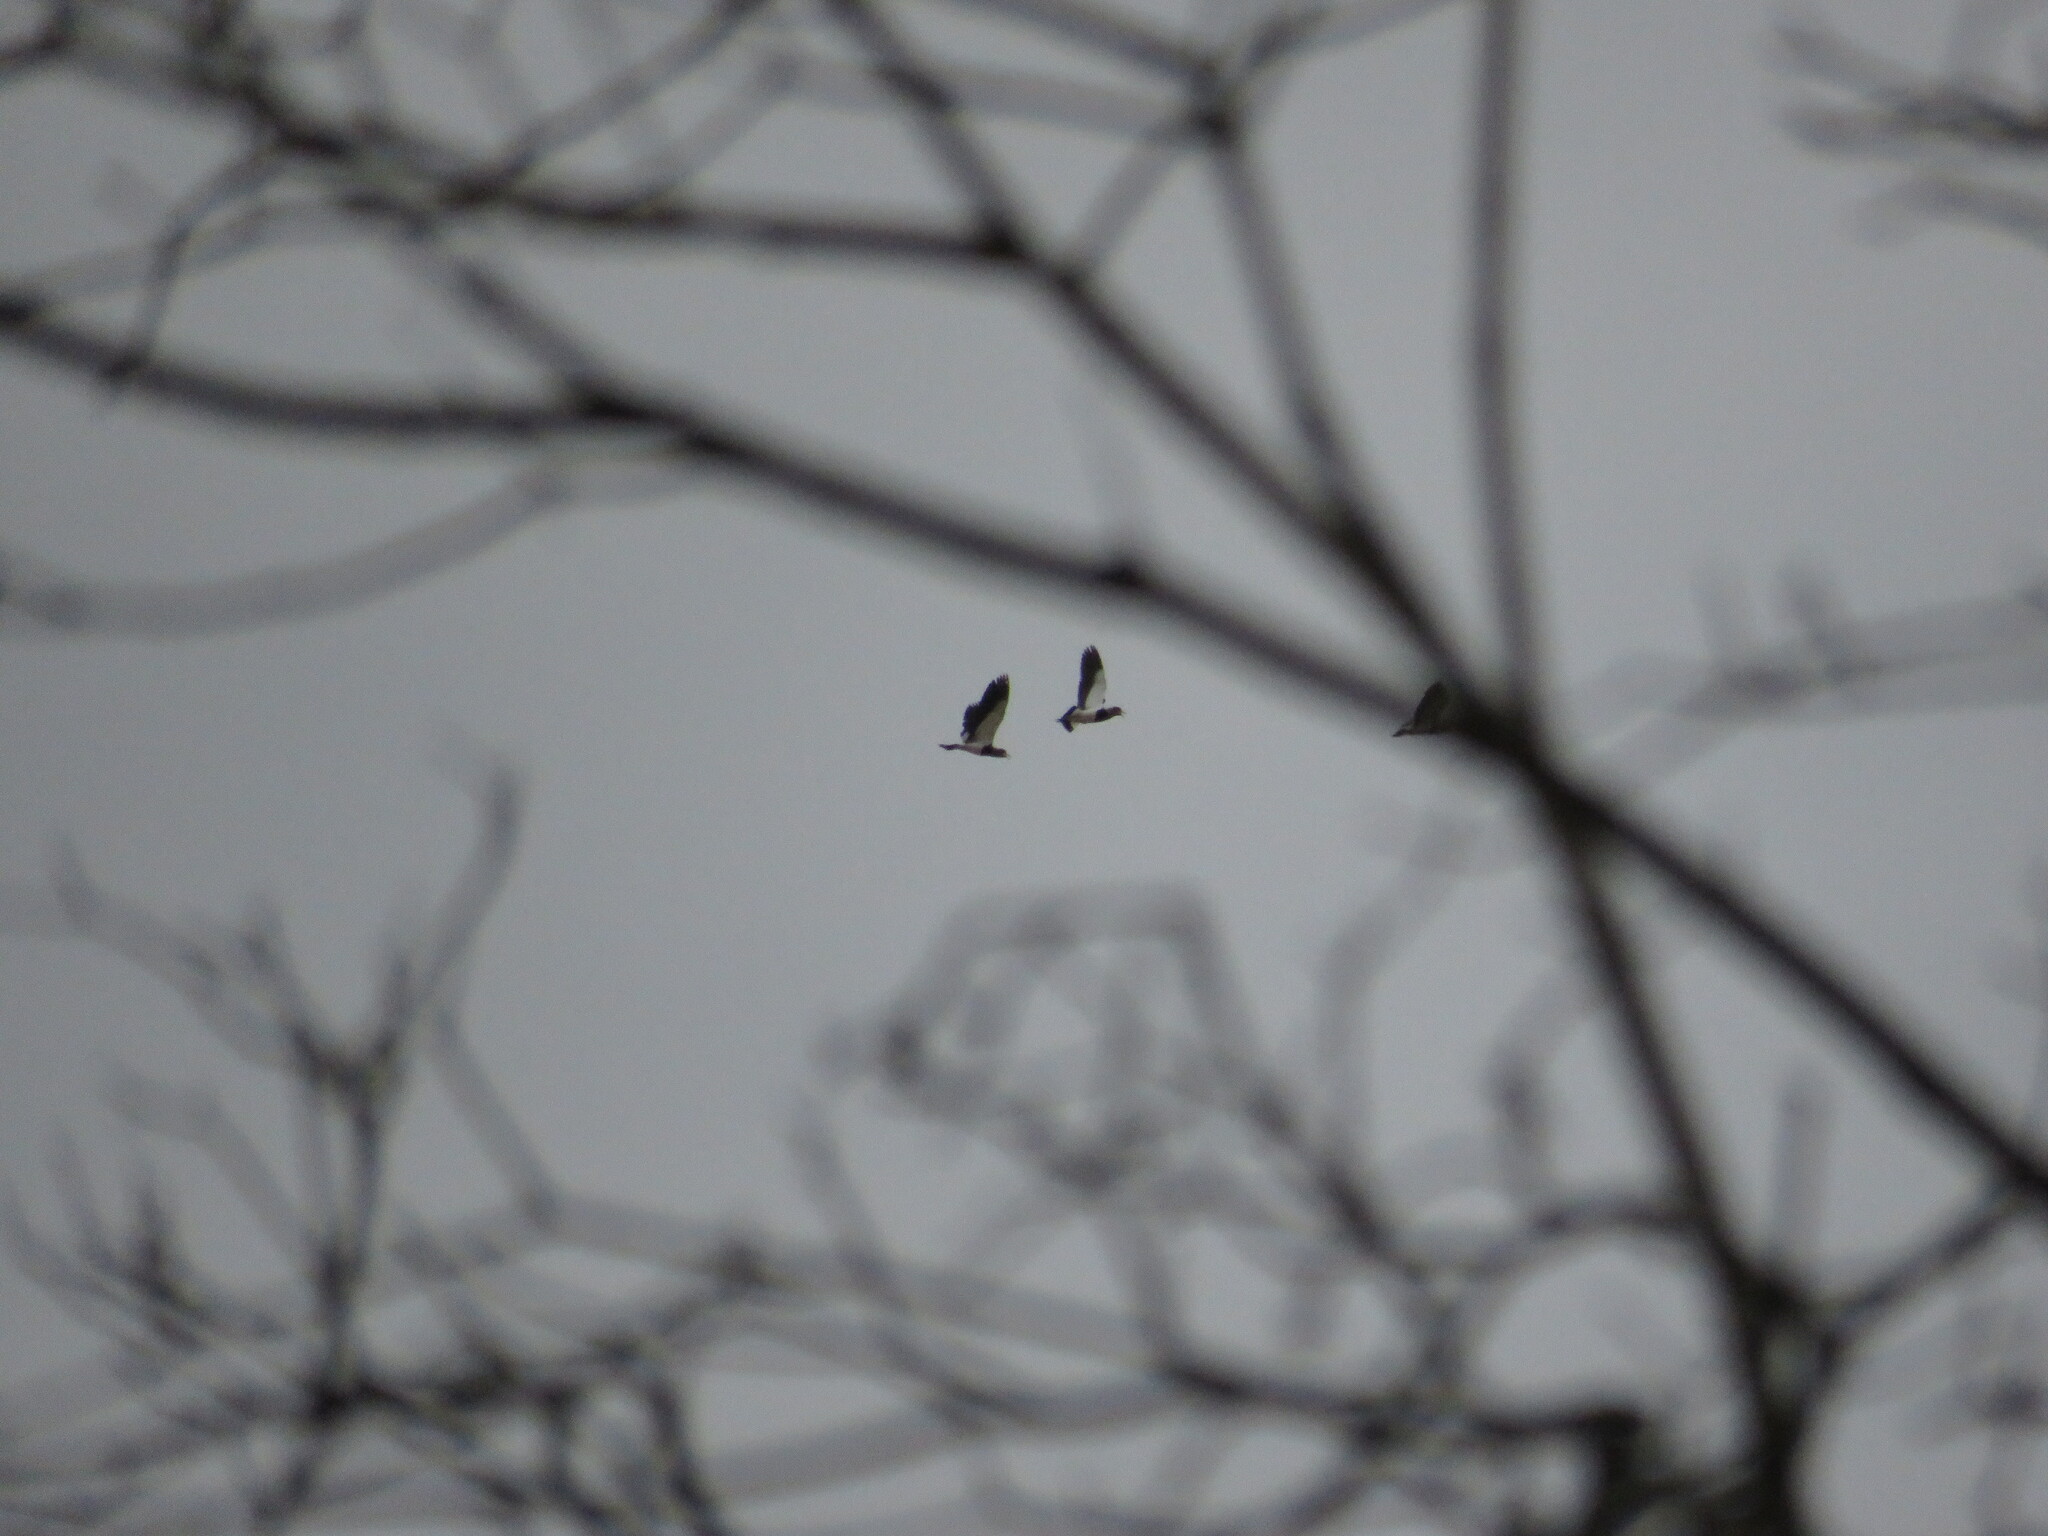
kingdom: Animalia
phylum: Chordata
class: Aves
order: Charadriiformes
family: Charadriidae
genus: Vanellus
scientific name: Vanellus chilensis
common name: Southern lapwing
